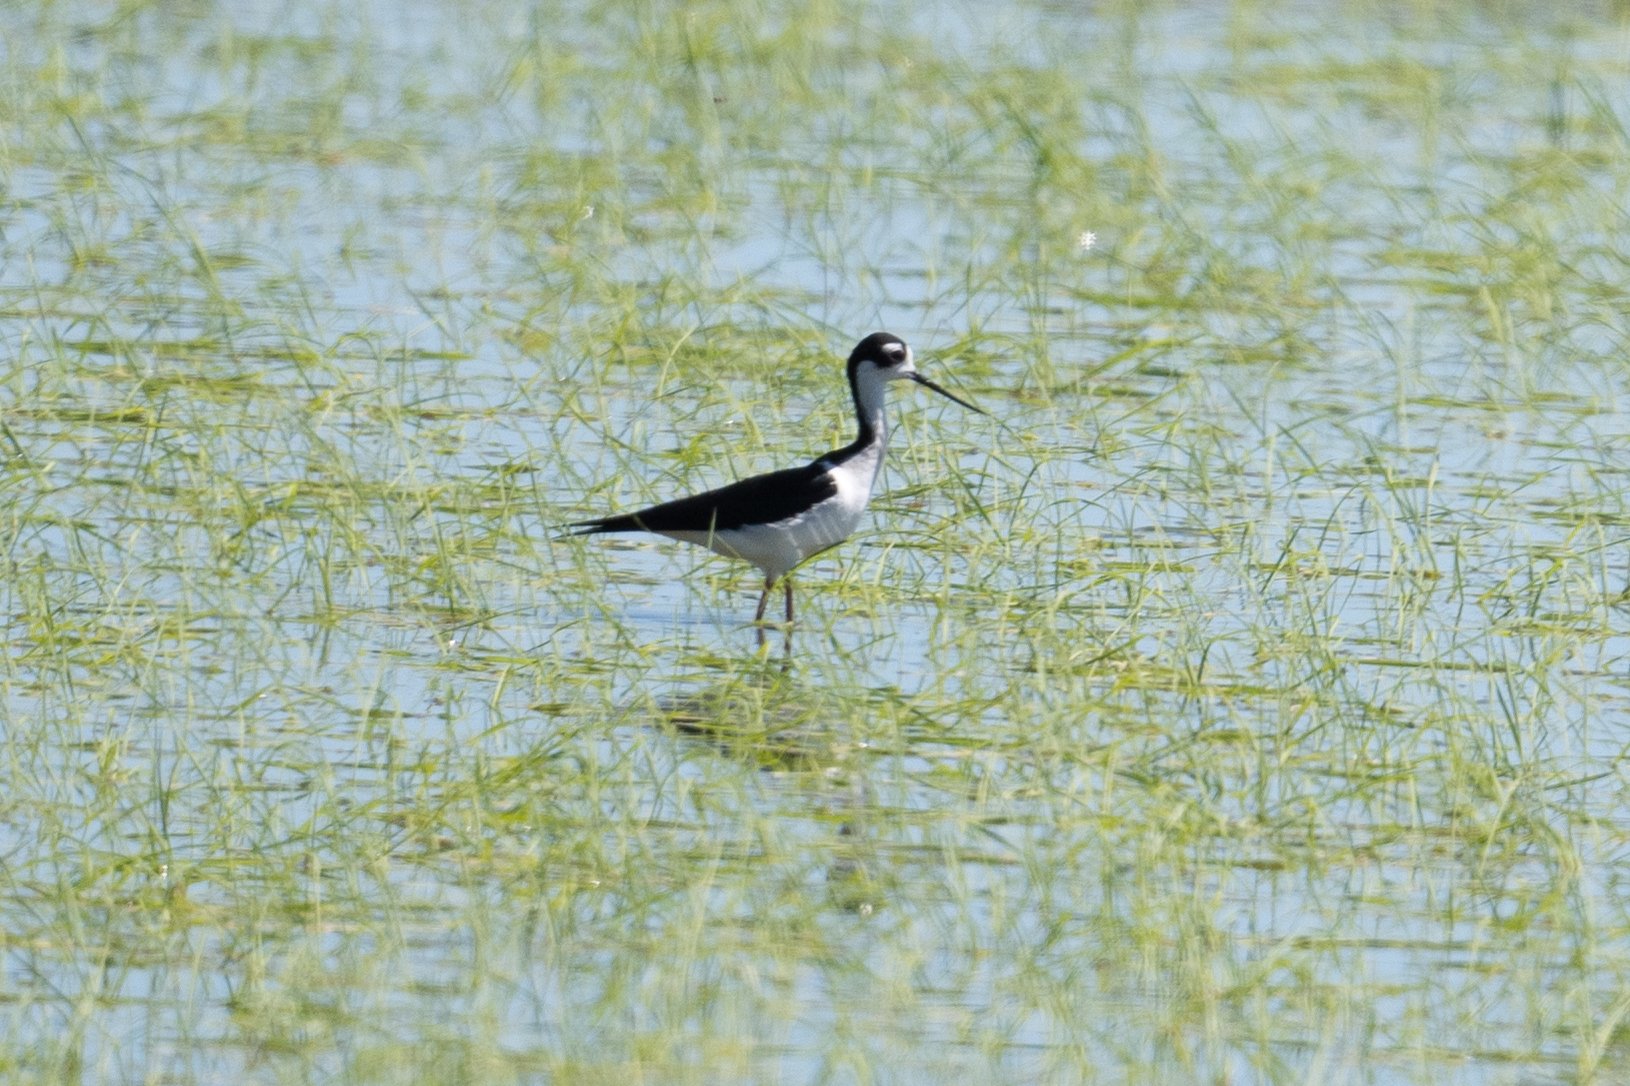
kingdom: Animalia
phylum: Chordata
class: Aves
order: Charadriiformes
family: Recurvirostridae
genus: Himantopus
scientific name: Himantopus mexicanus
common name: Black-necked stilt
